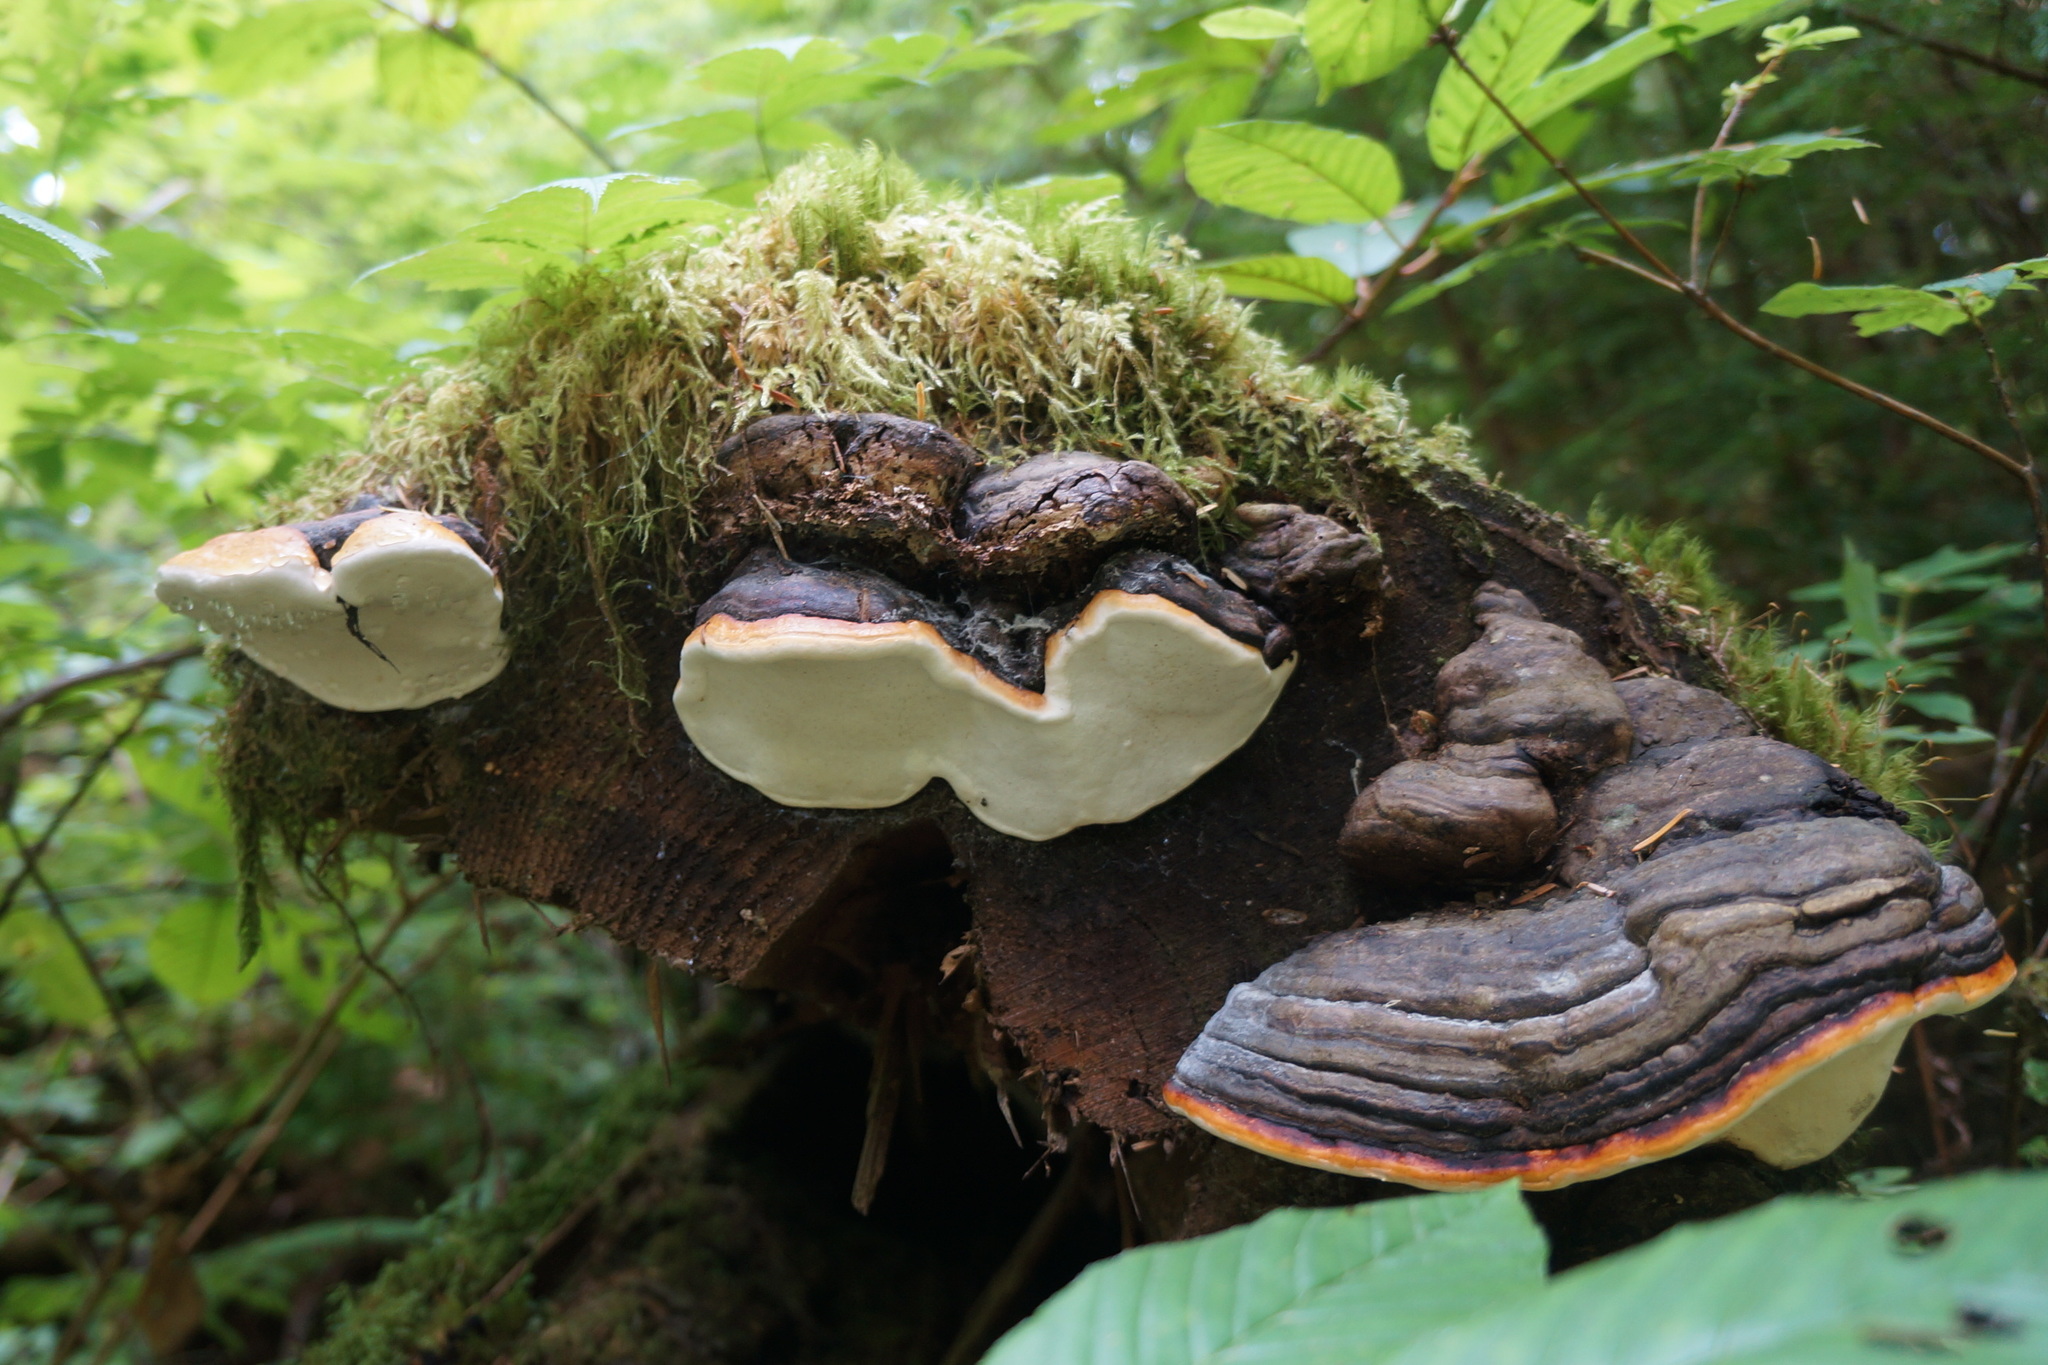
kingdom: Fungi
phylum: Basidiomycota
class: Agaricomycetes
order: Polyporales
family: Fomitopsidaceae
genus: Fomitopsis
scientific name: Fomitopsis mounceae
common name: Northern red belt
